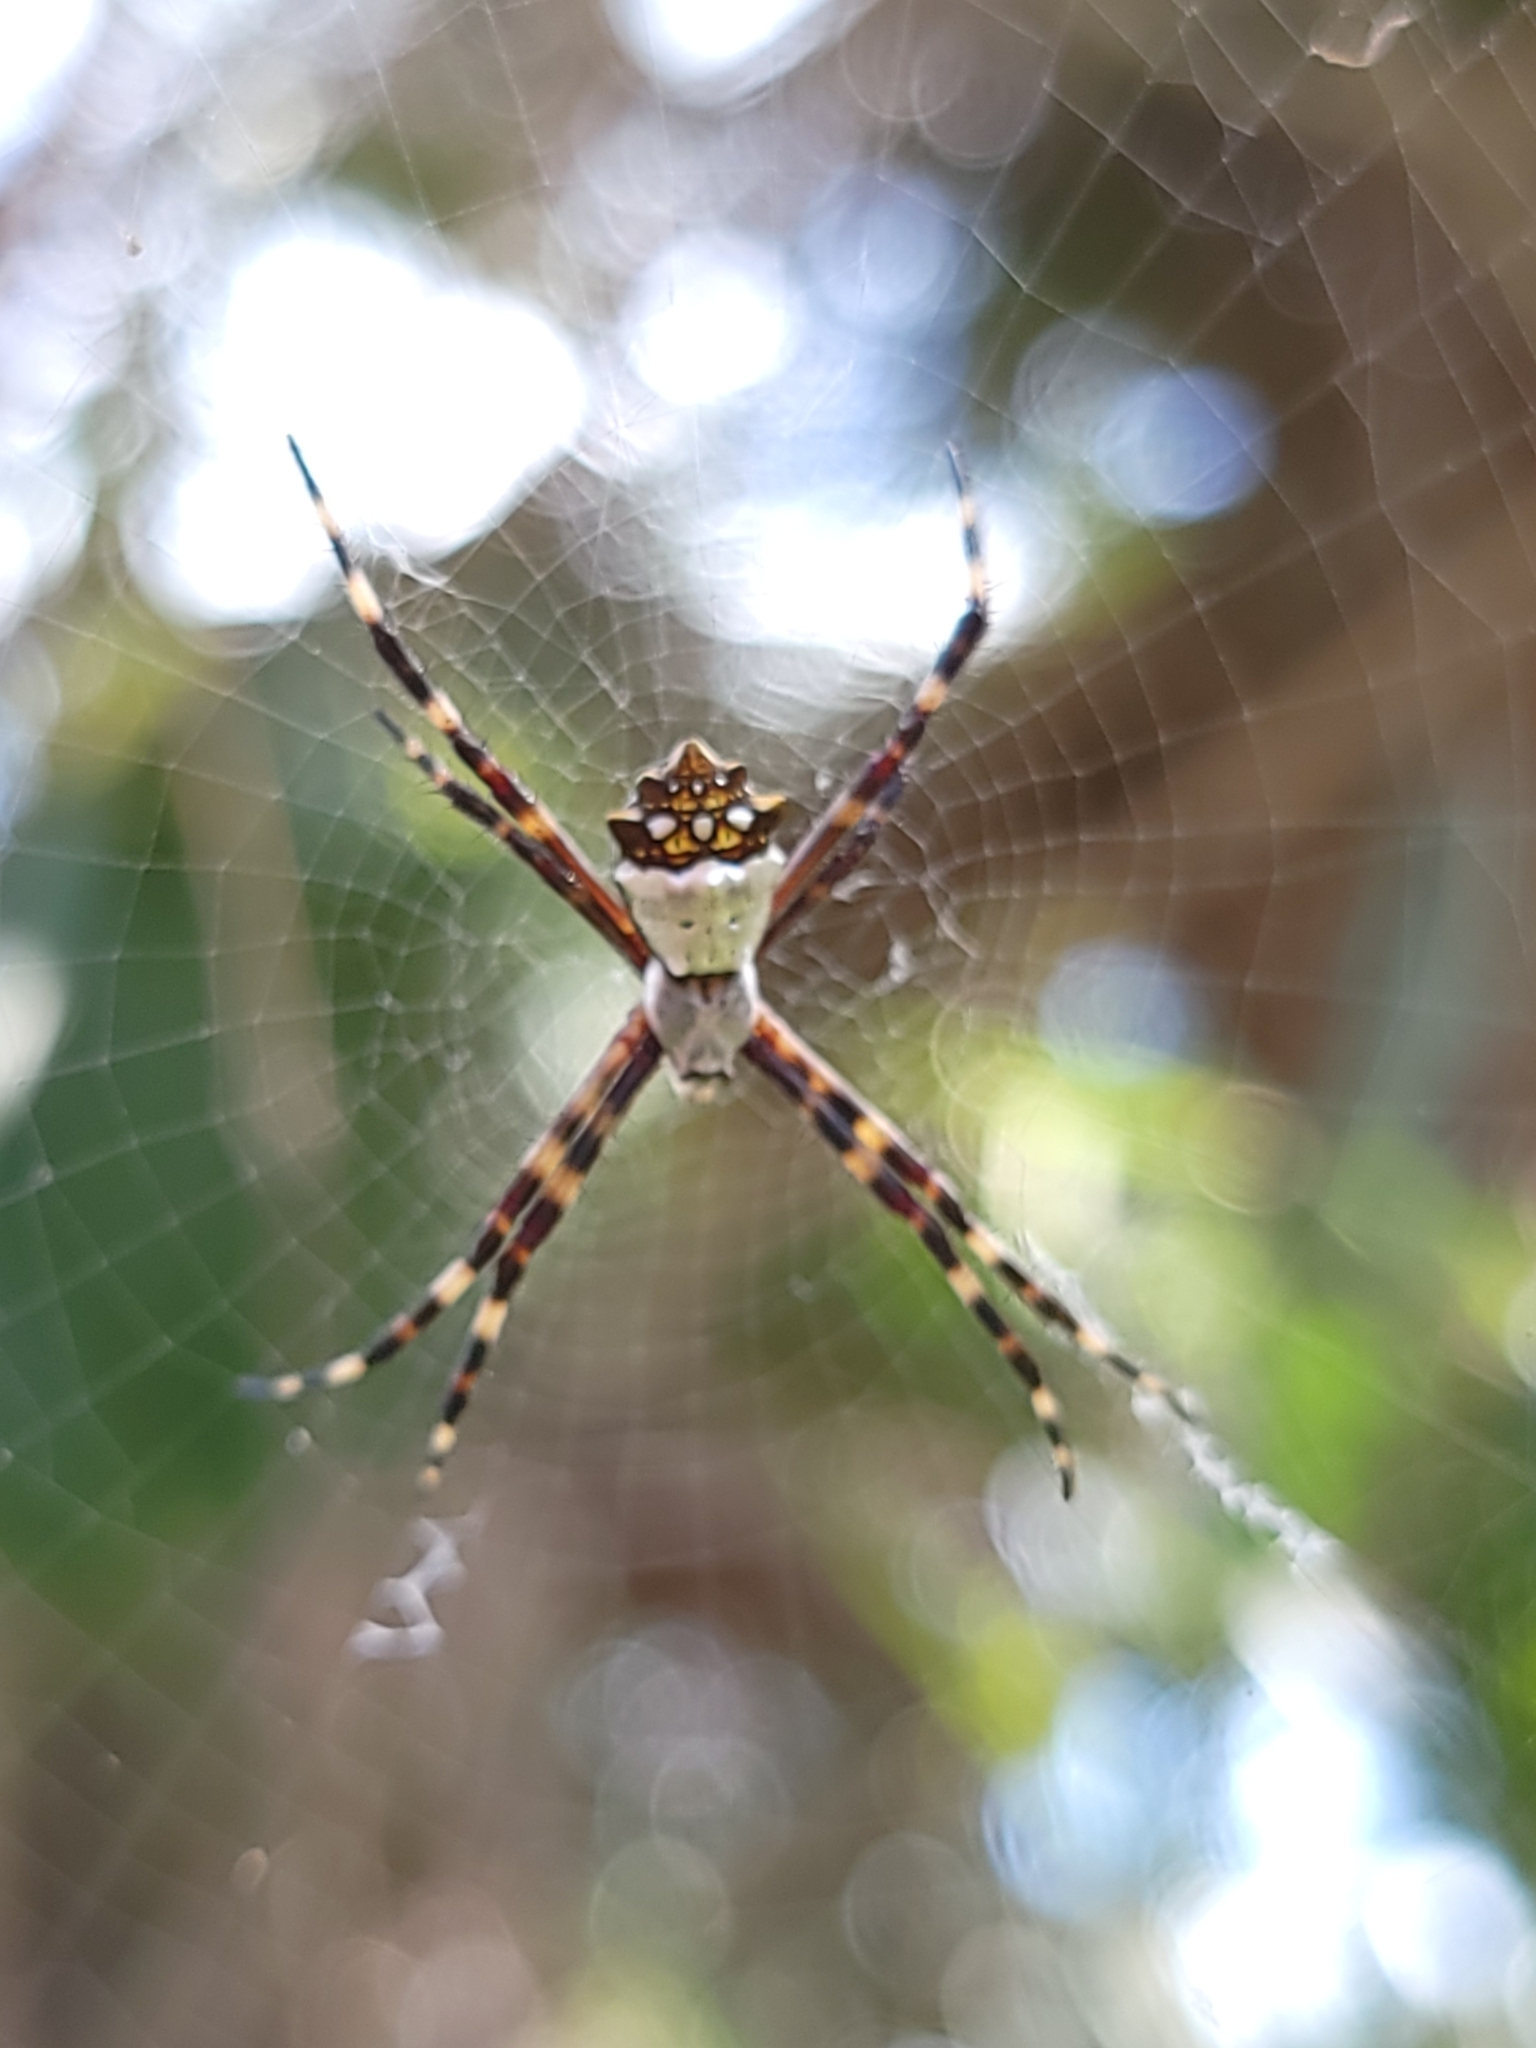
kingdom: Animalia
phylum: Arthropoda
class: Arachnida
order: Araneae
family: Araneidae
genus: Argiope
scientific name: Argiope argentata
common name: Orb weavers
